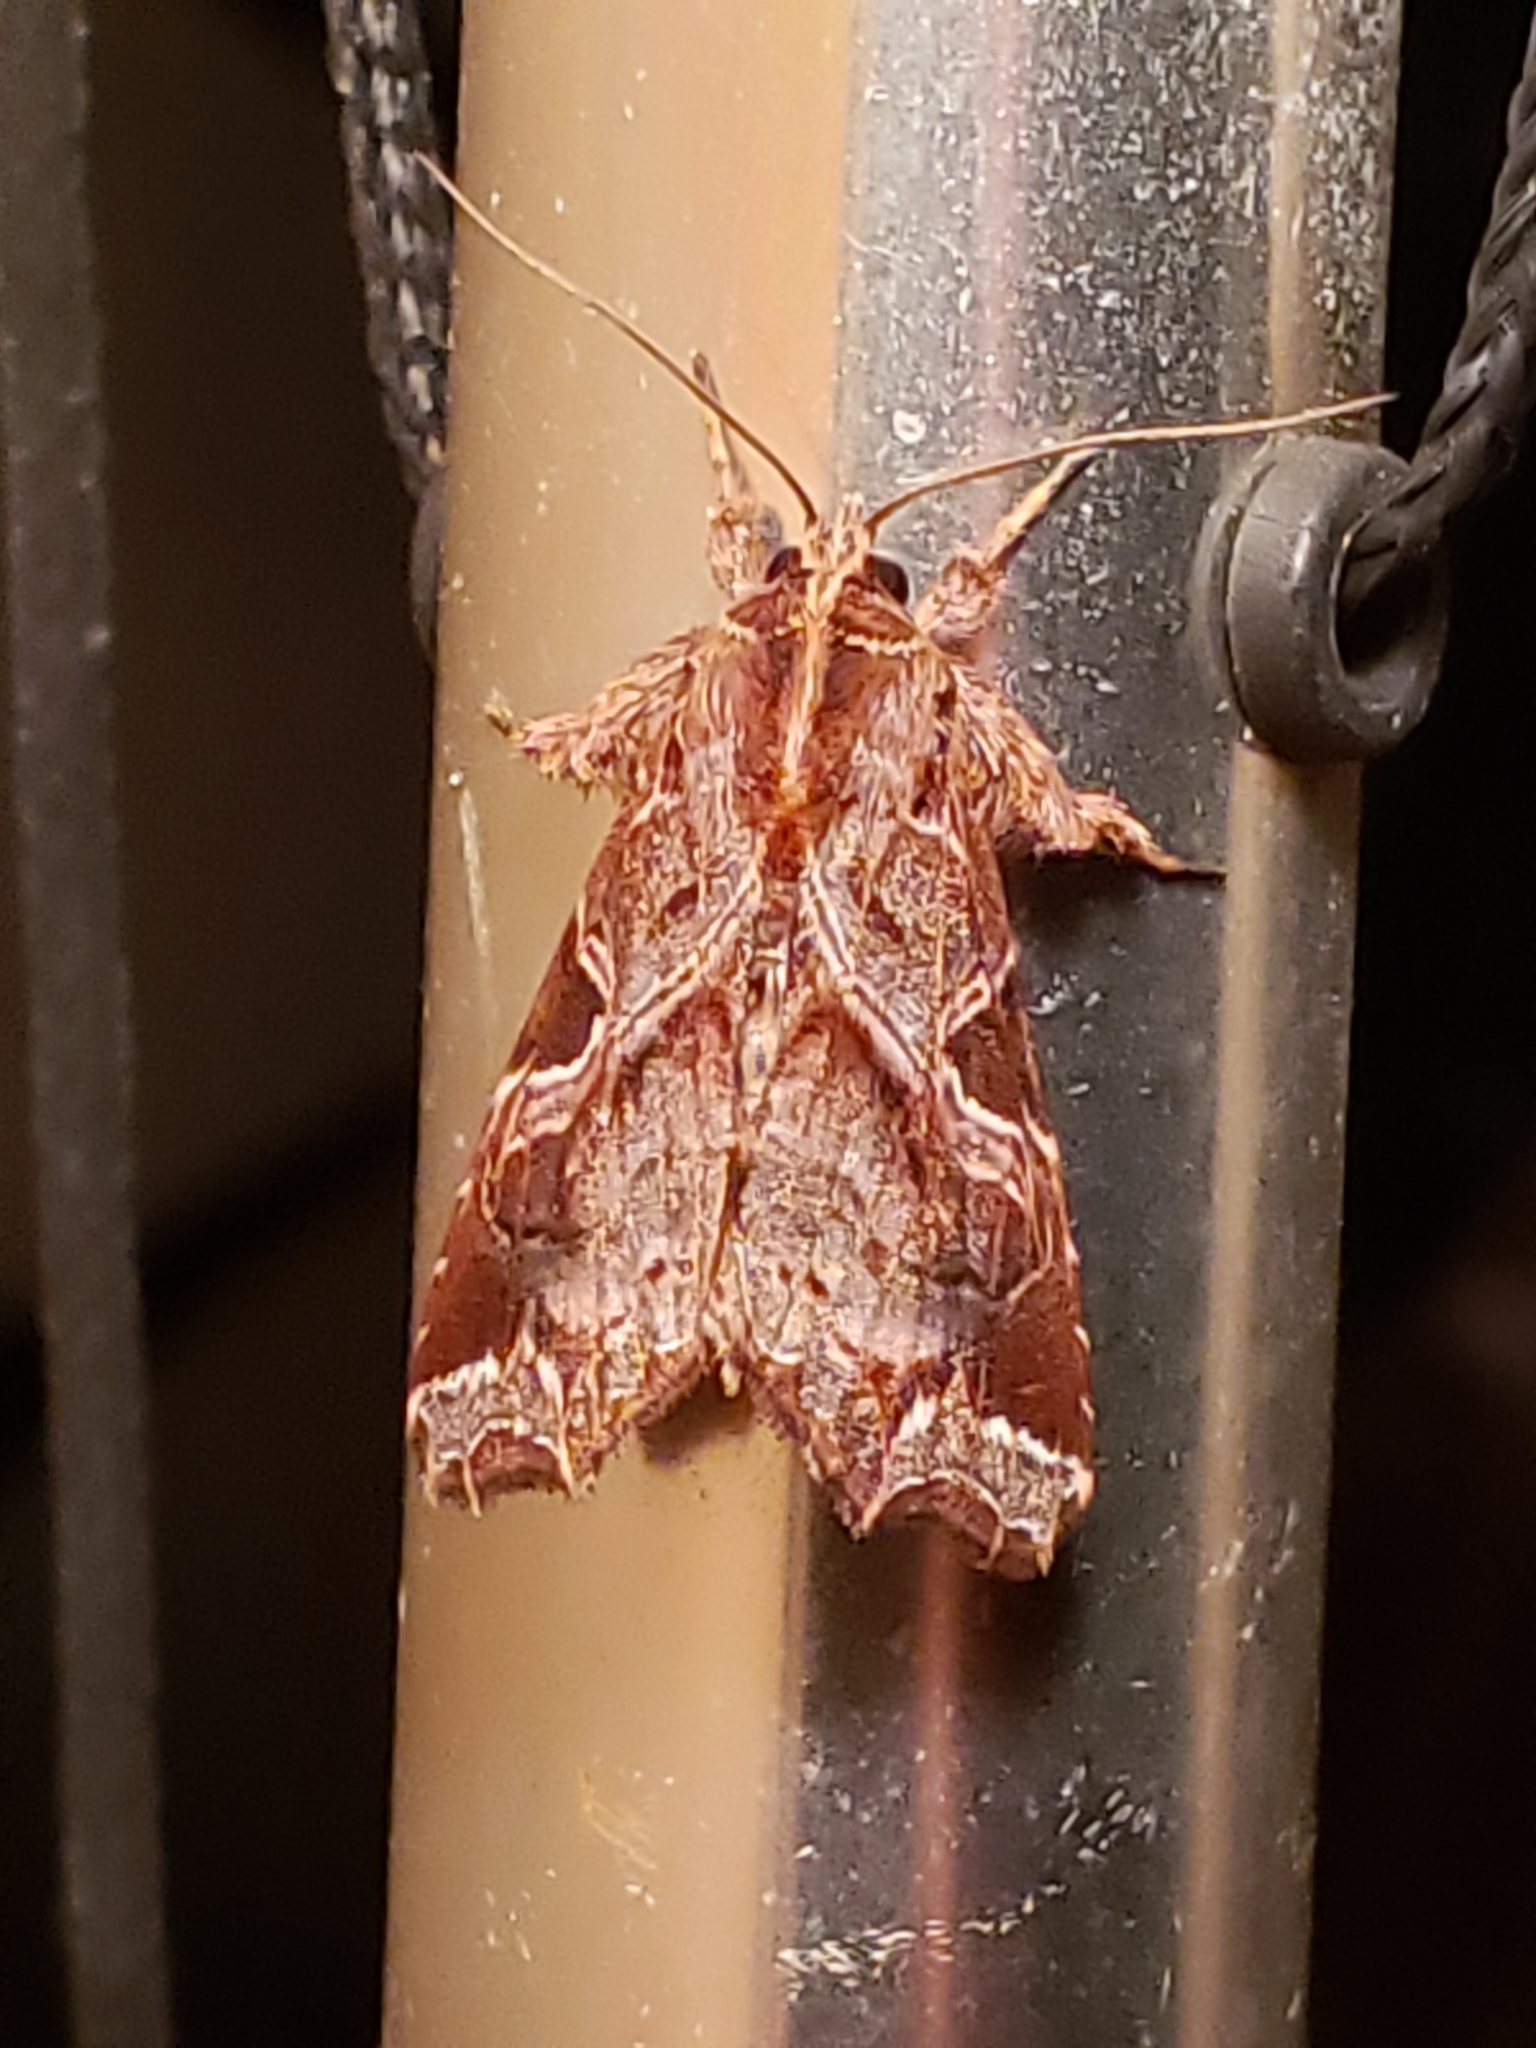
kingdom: Animalia
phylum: Arthropoda
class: Insecta
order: Lepidoptera
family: Noctuidae
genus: Callopistria
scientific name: Callopistria floridensis
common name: Florida fern moth
